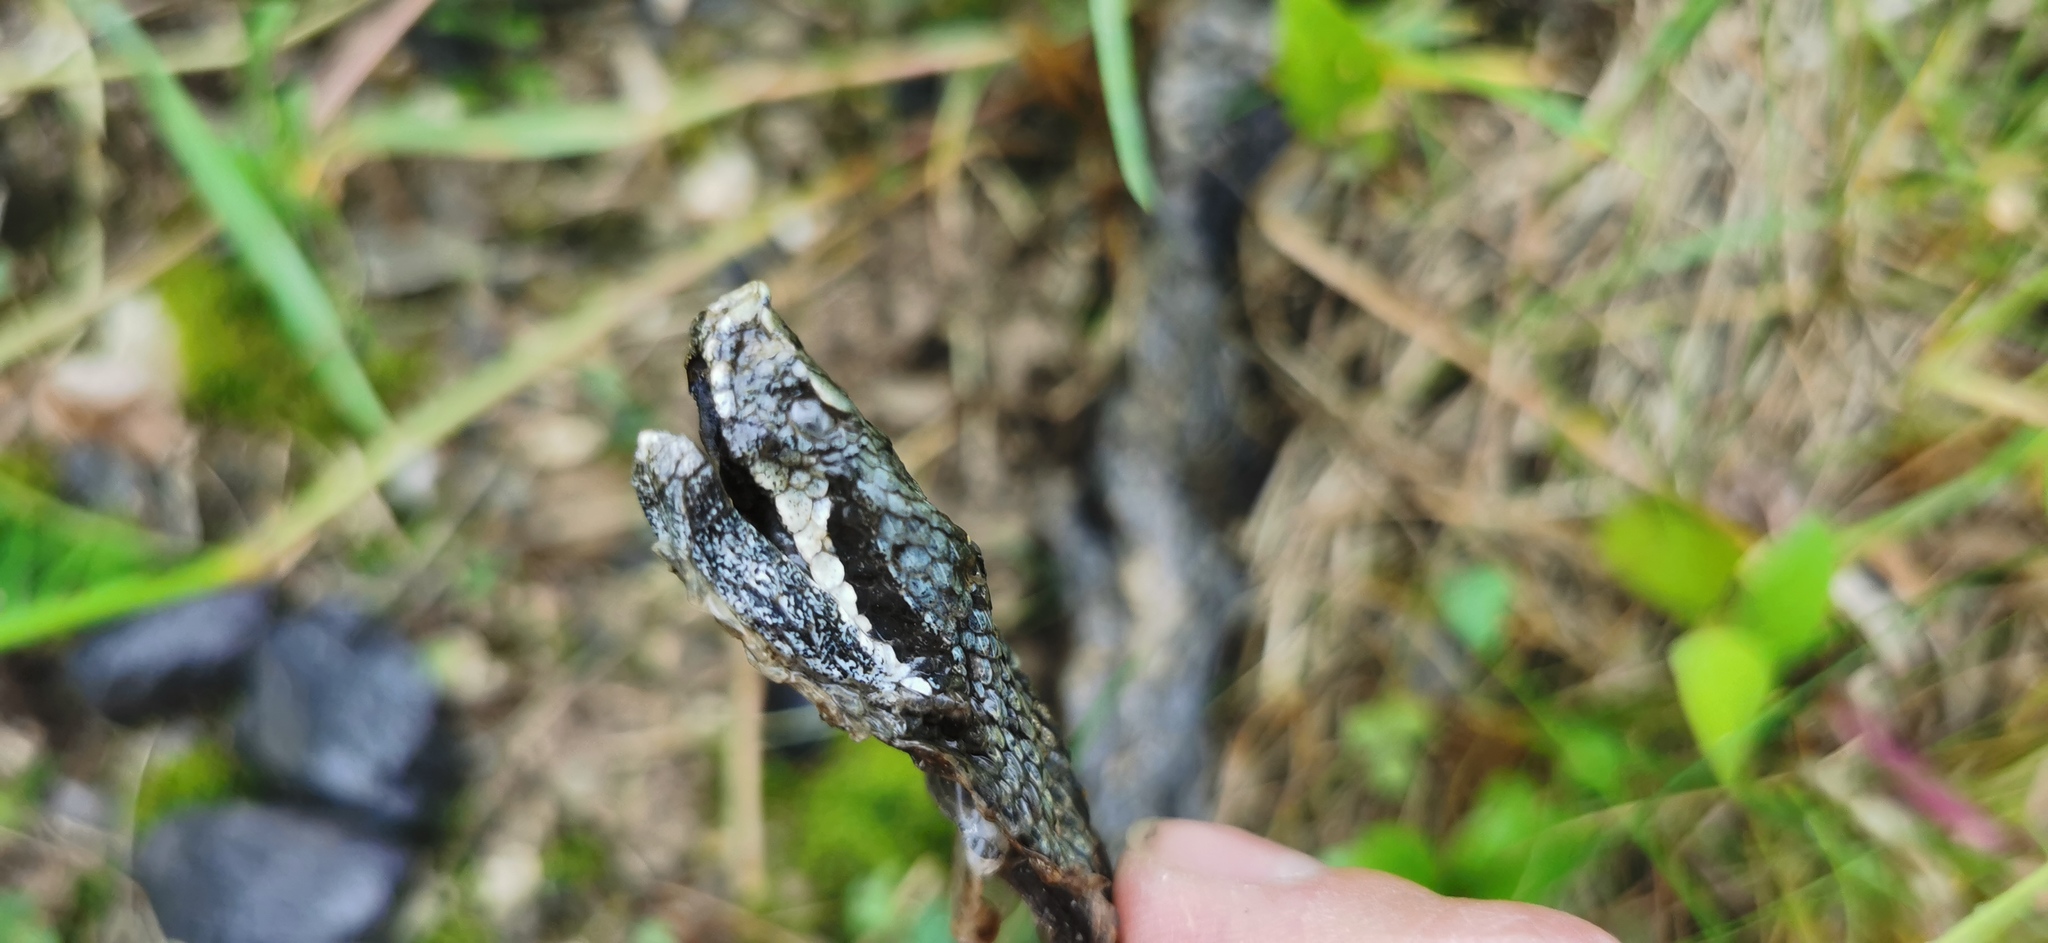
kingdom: Animalia
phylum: Chordata
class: Squamata
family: Viperidae
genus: Vipera
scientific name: Vipera aspis
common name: Asp viper
